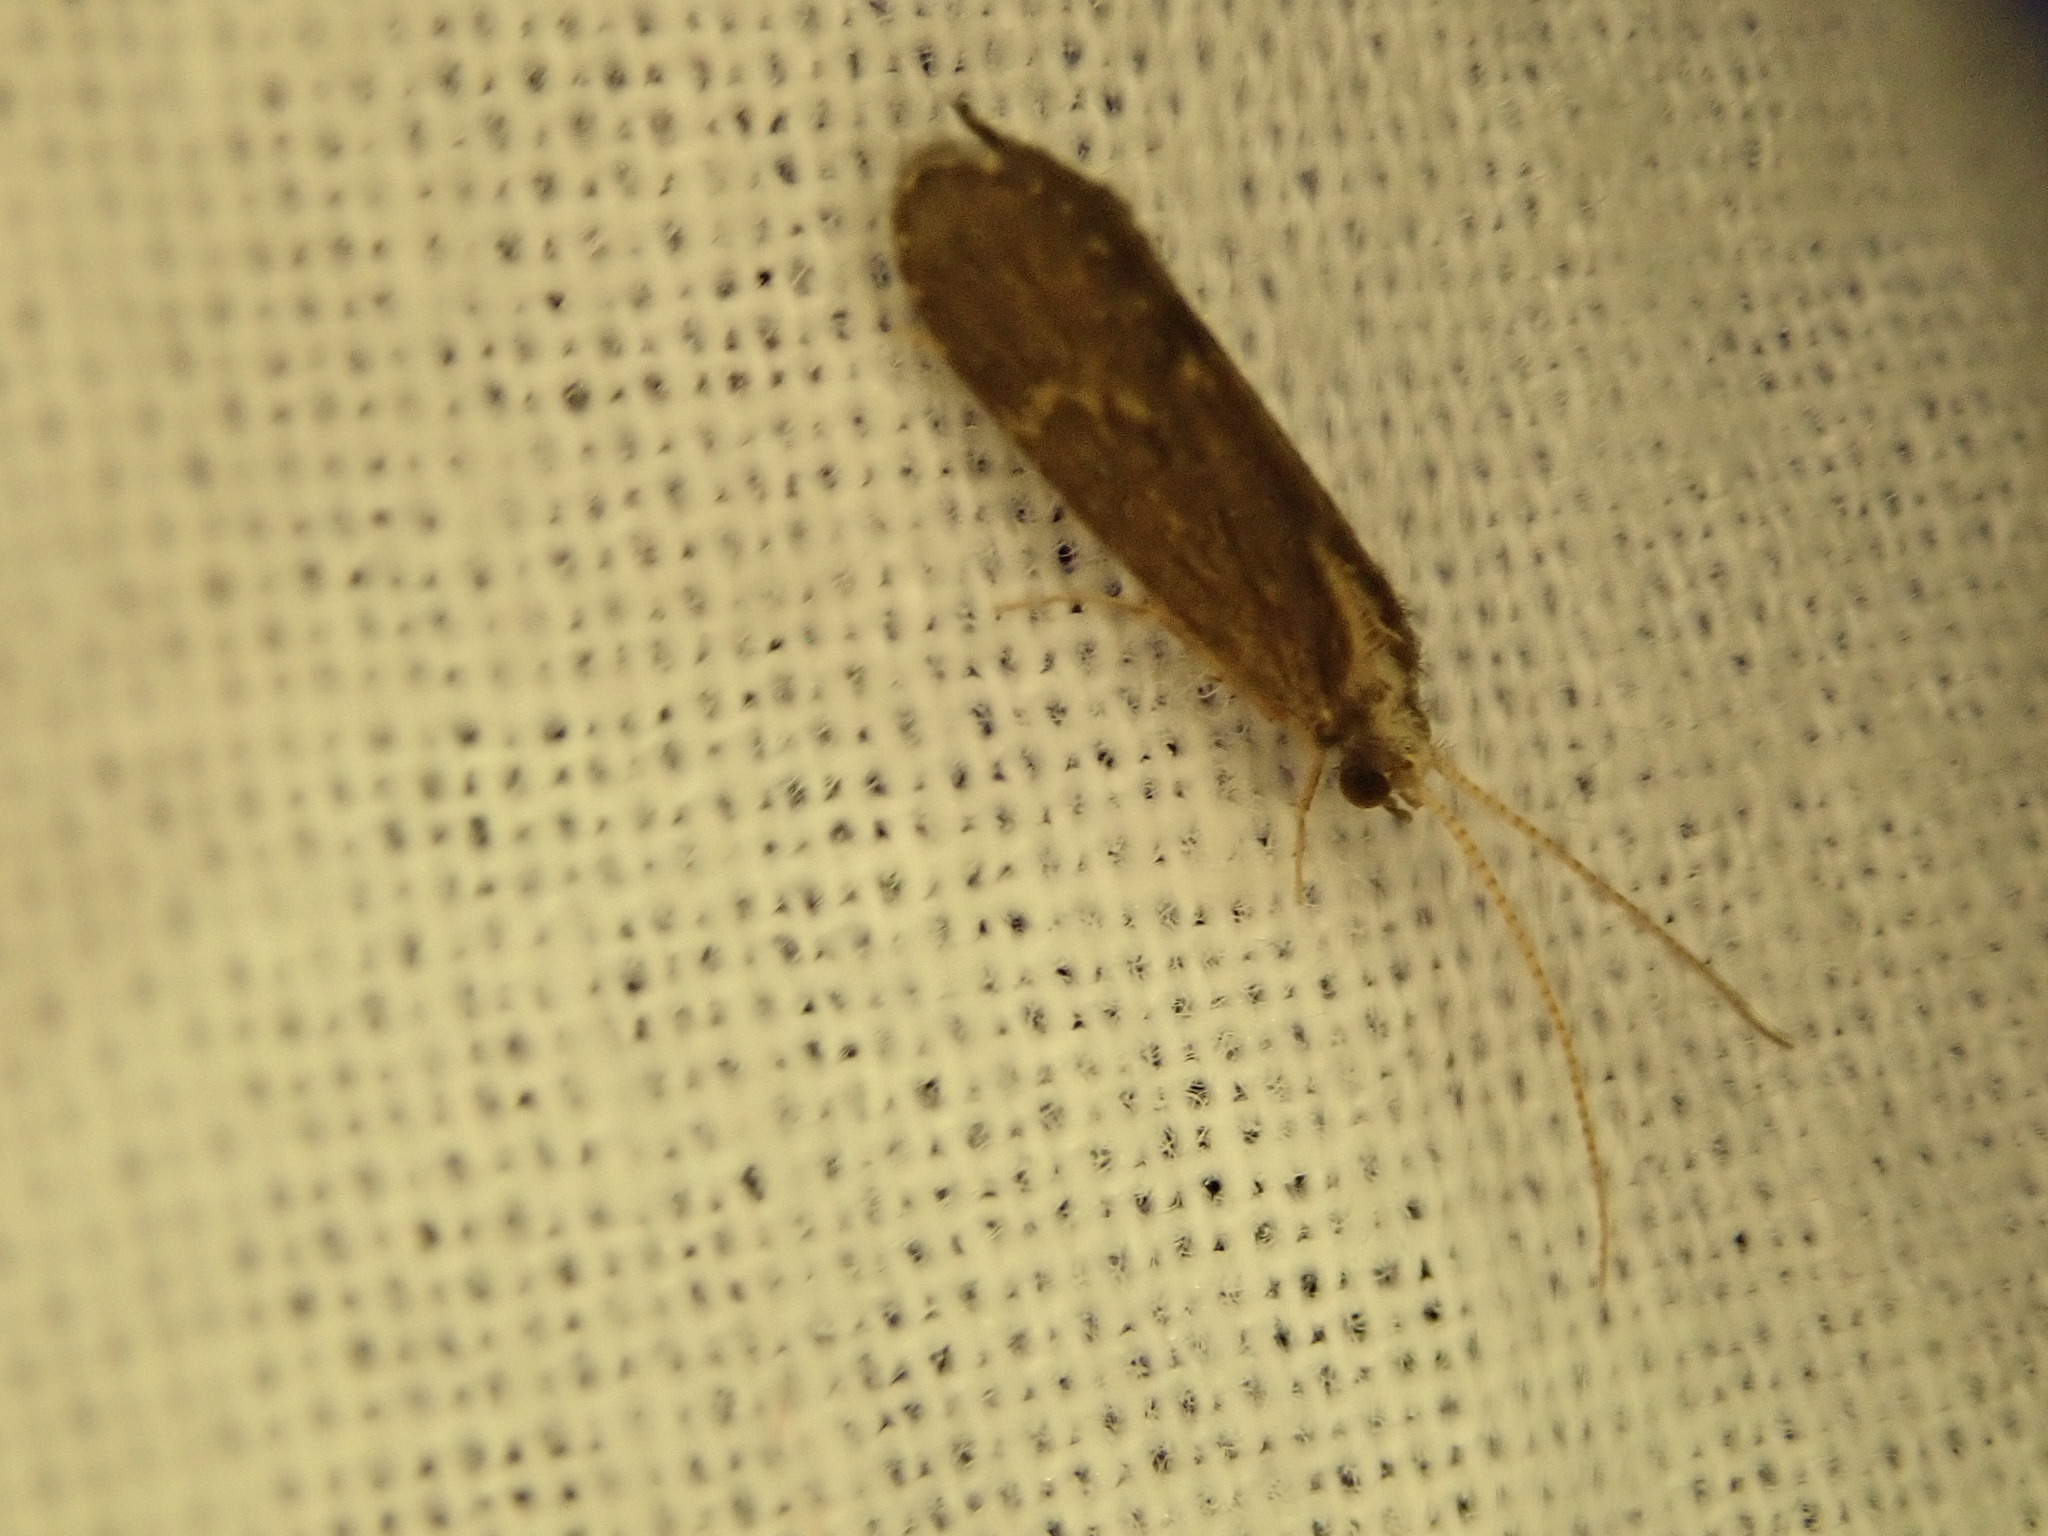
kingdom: Animalia
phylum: Arthropoda
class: Insecta
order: Trichoptera
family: Polycentropodidae
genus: Cyrnellus
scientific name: Cyrnellus fraternus
